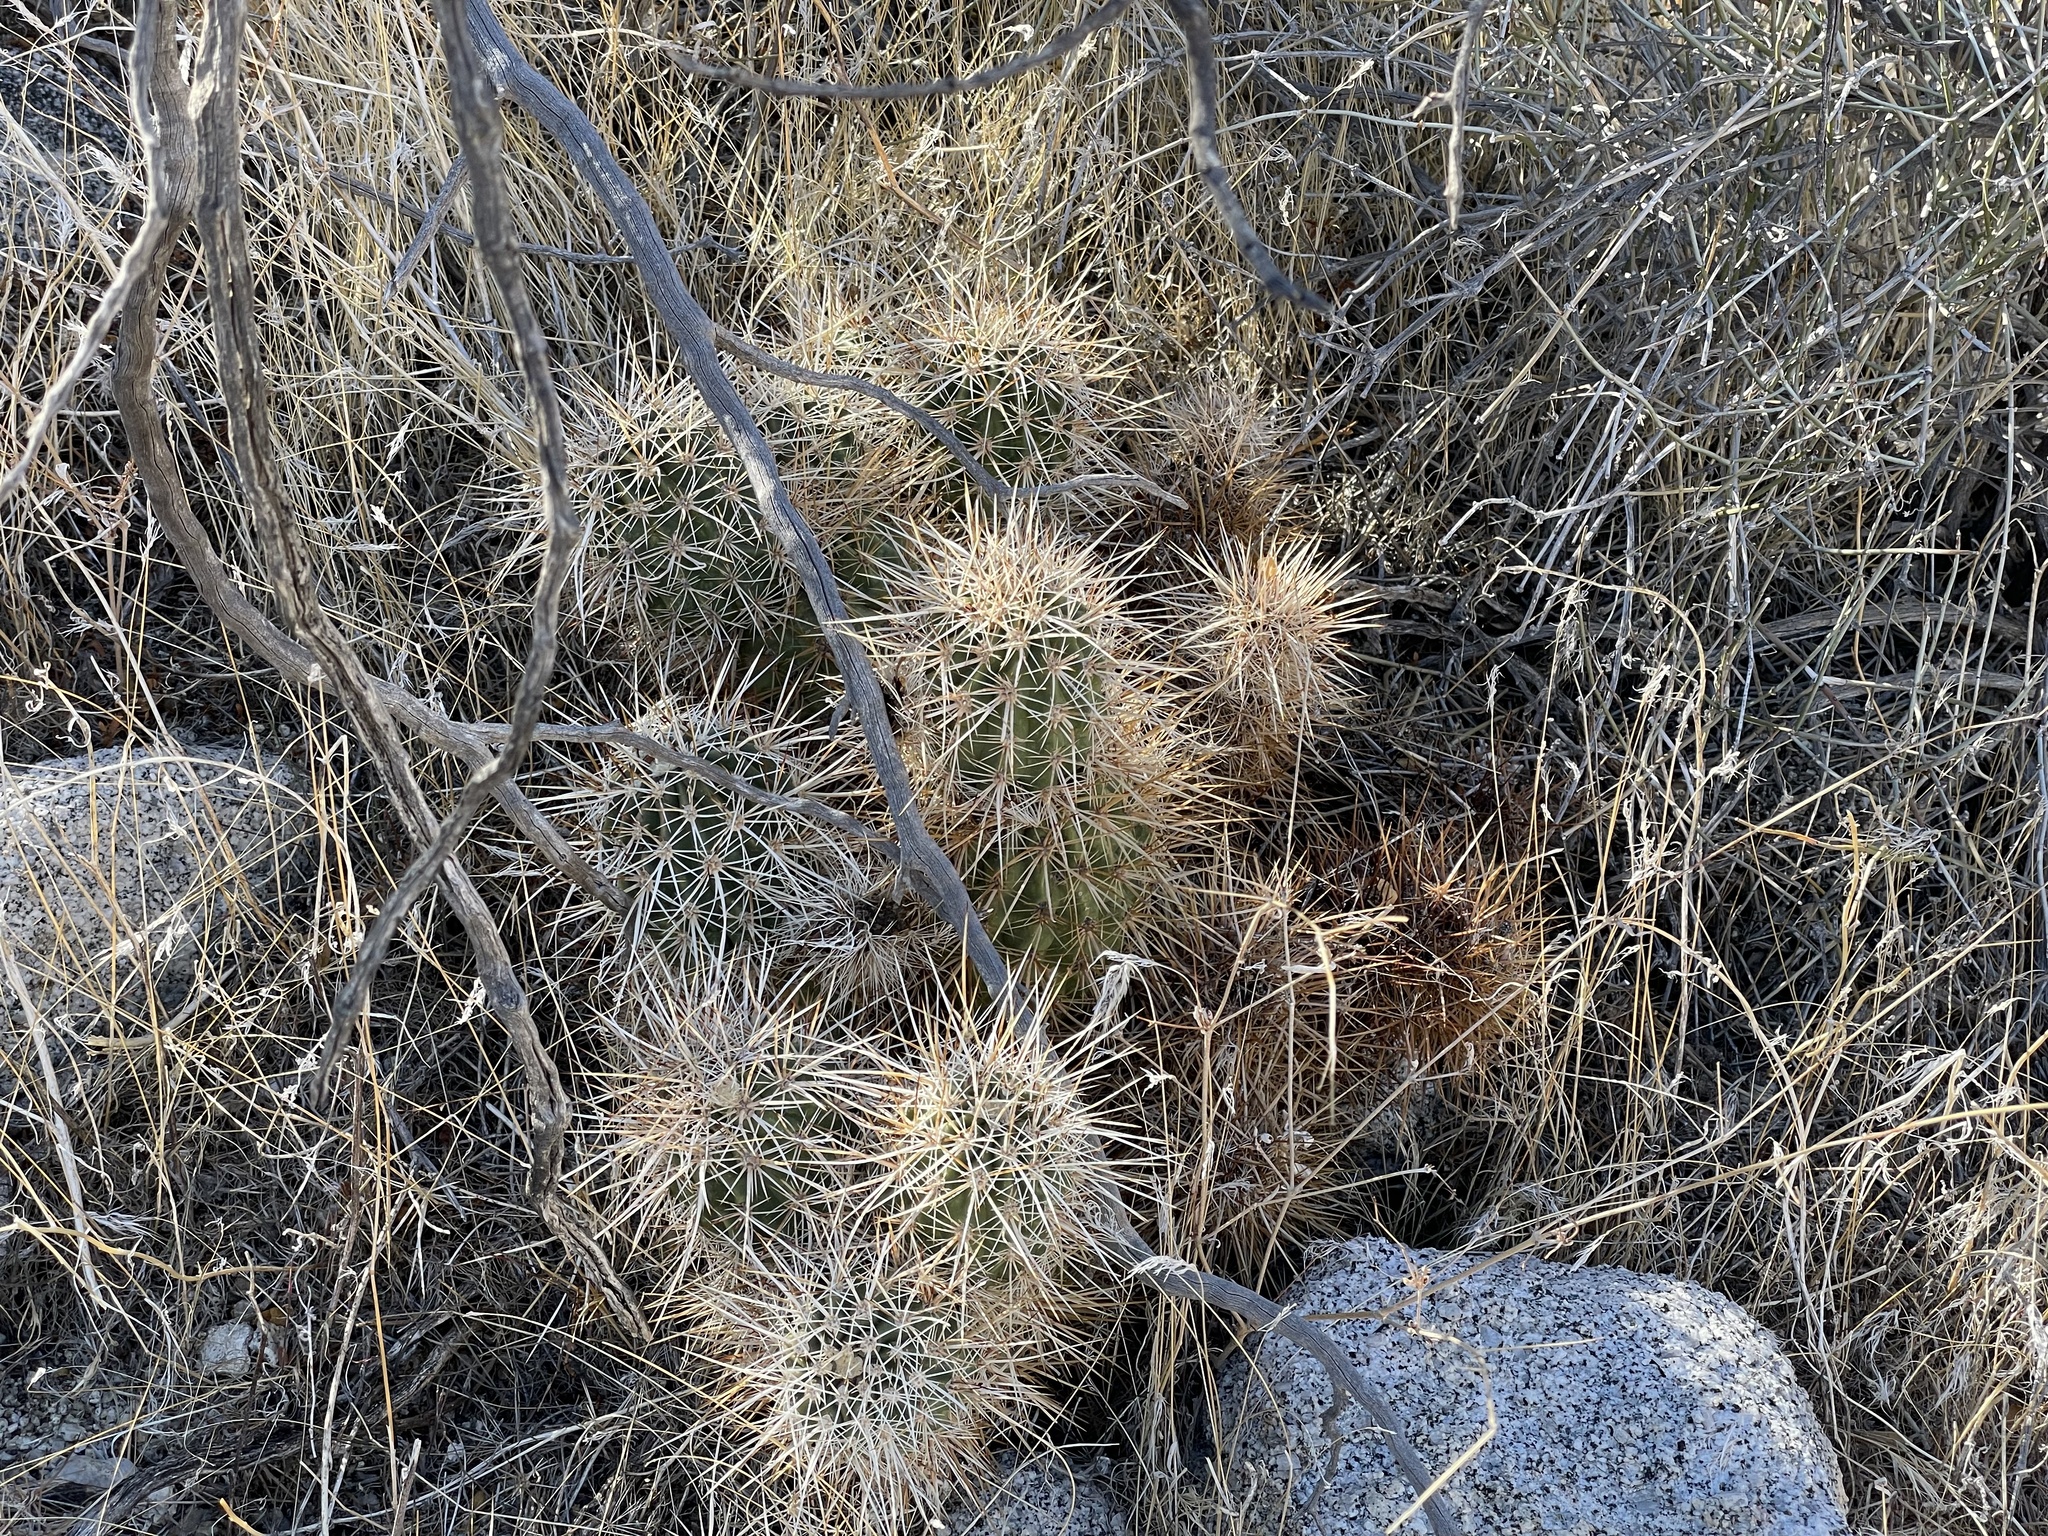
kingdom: Plantae
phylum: Tracheophyta
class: Magnoliopsida
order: Caryophyllales
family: Cactaceae
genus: Echinocereus
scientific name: Echinocereus engelmannii
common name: Engelmann's hedgehog cactus
